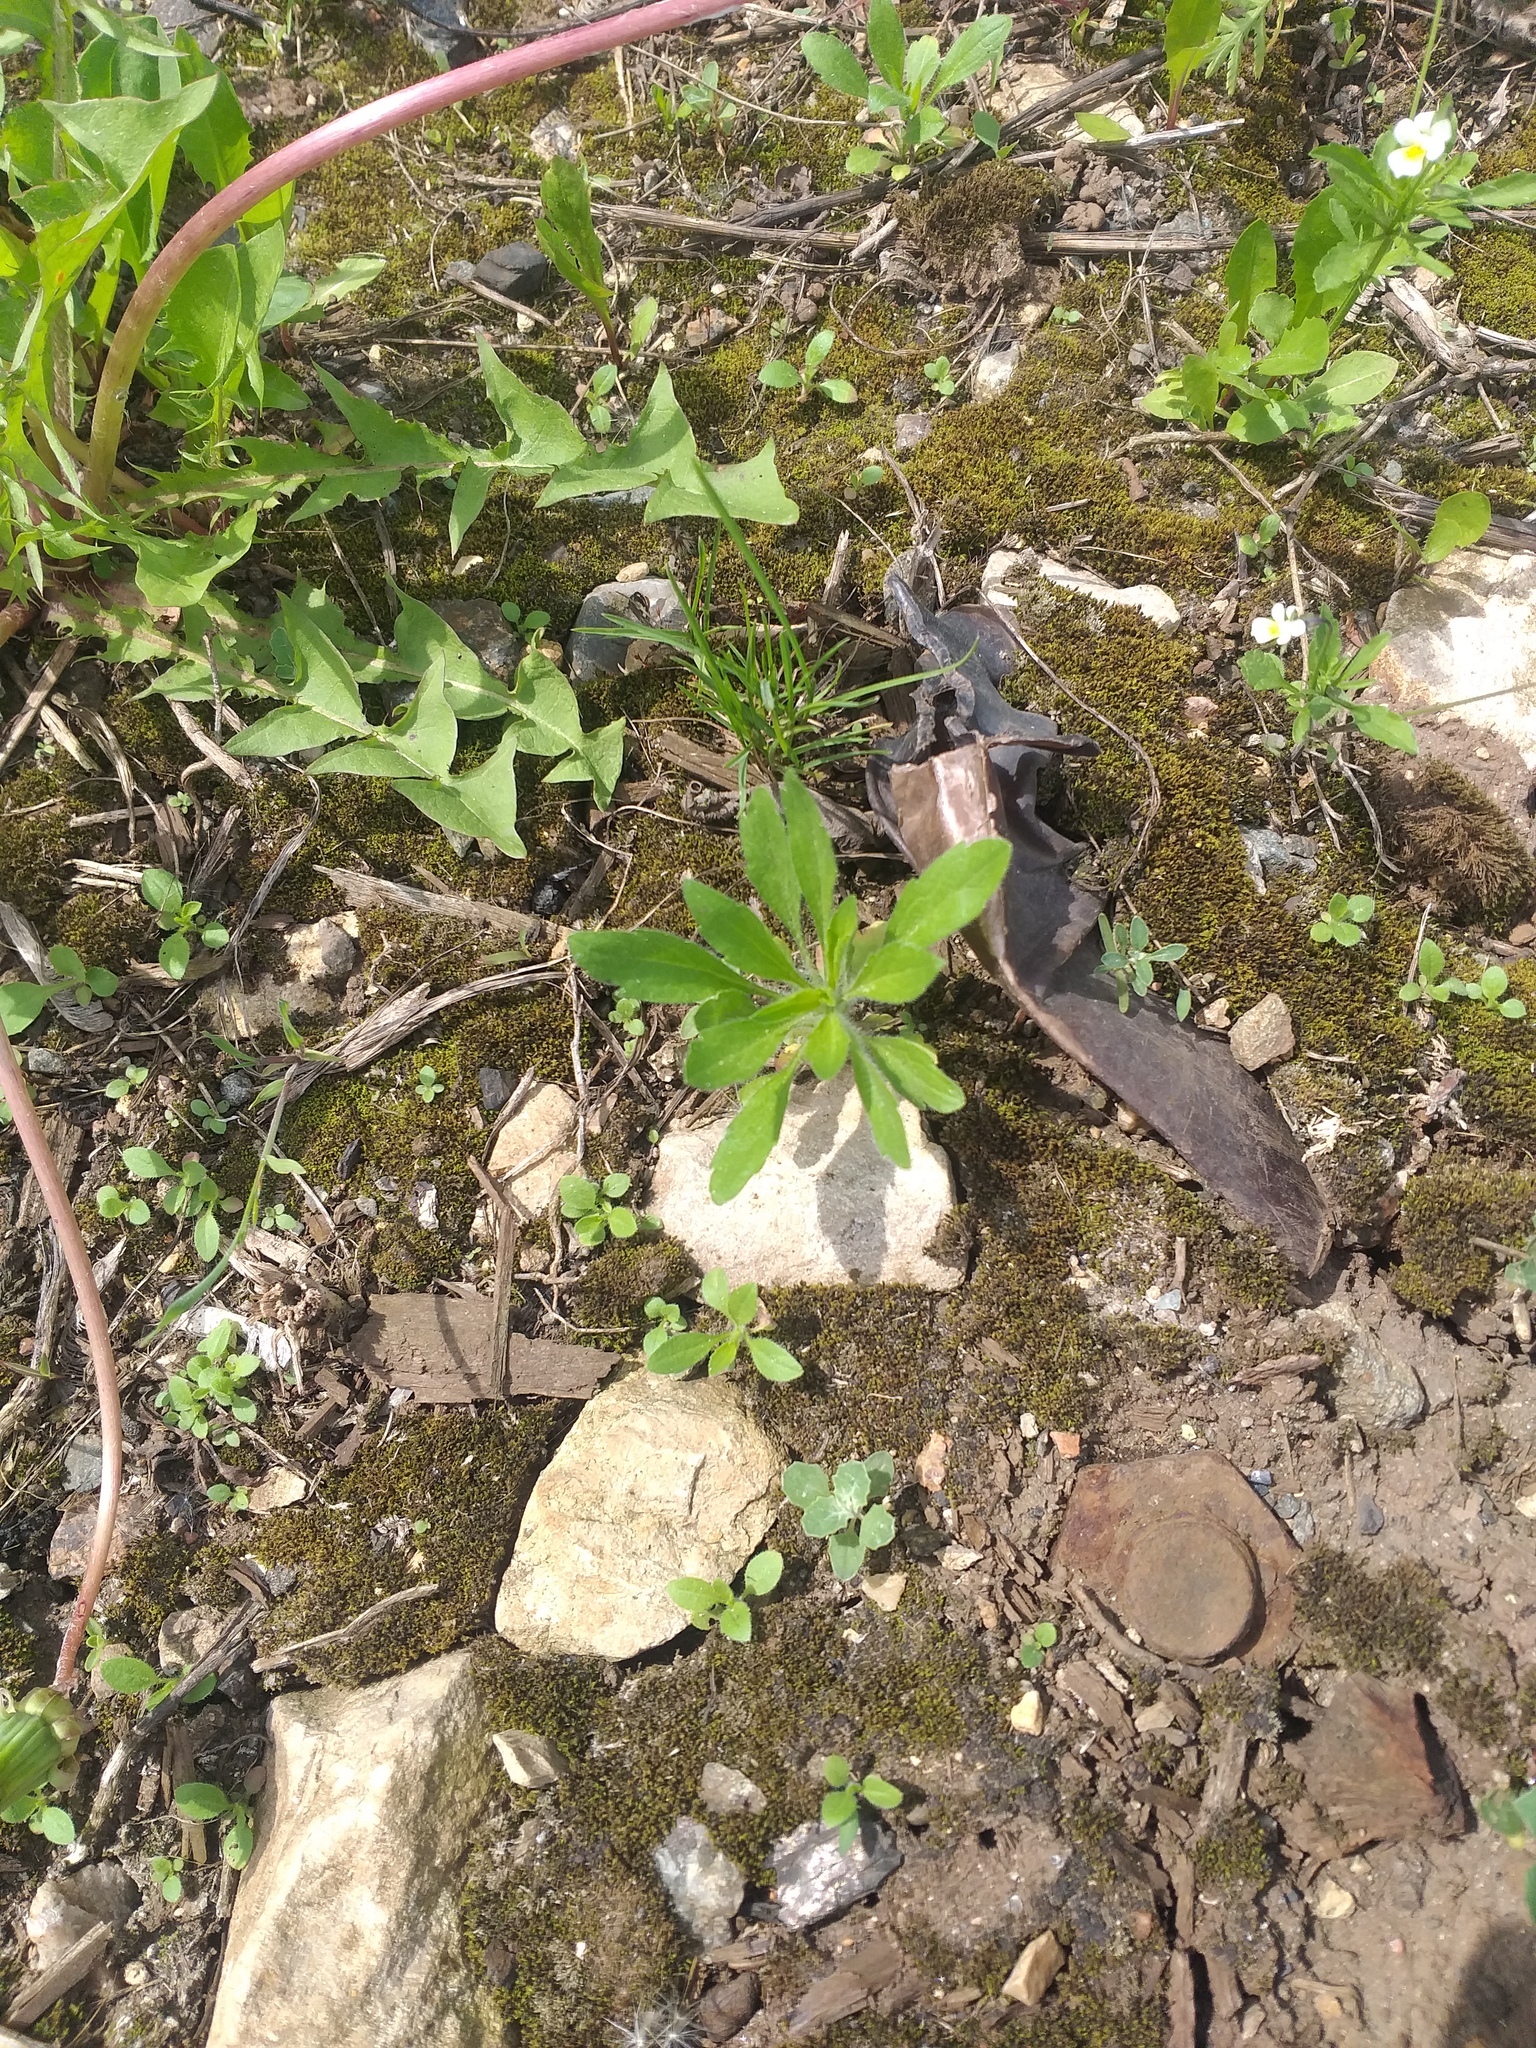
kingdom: Plantae
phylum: Tracheophyta
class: Magnoliopsida
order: Asterales
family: Asteraceae
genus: Erigeron
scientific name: Erigeron canadensis
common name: Canadian fleabane
